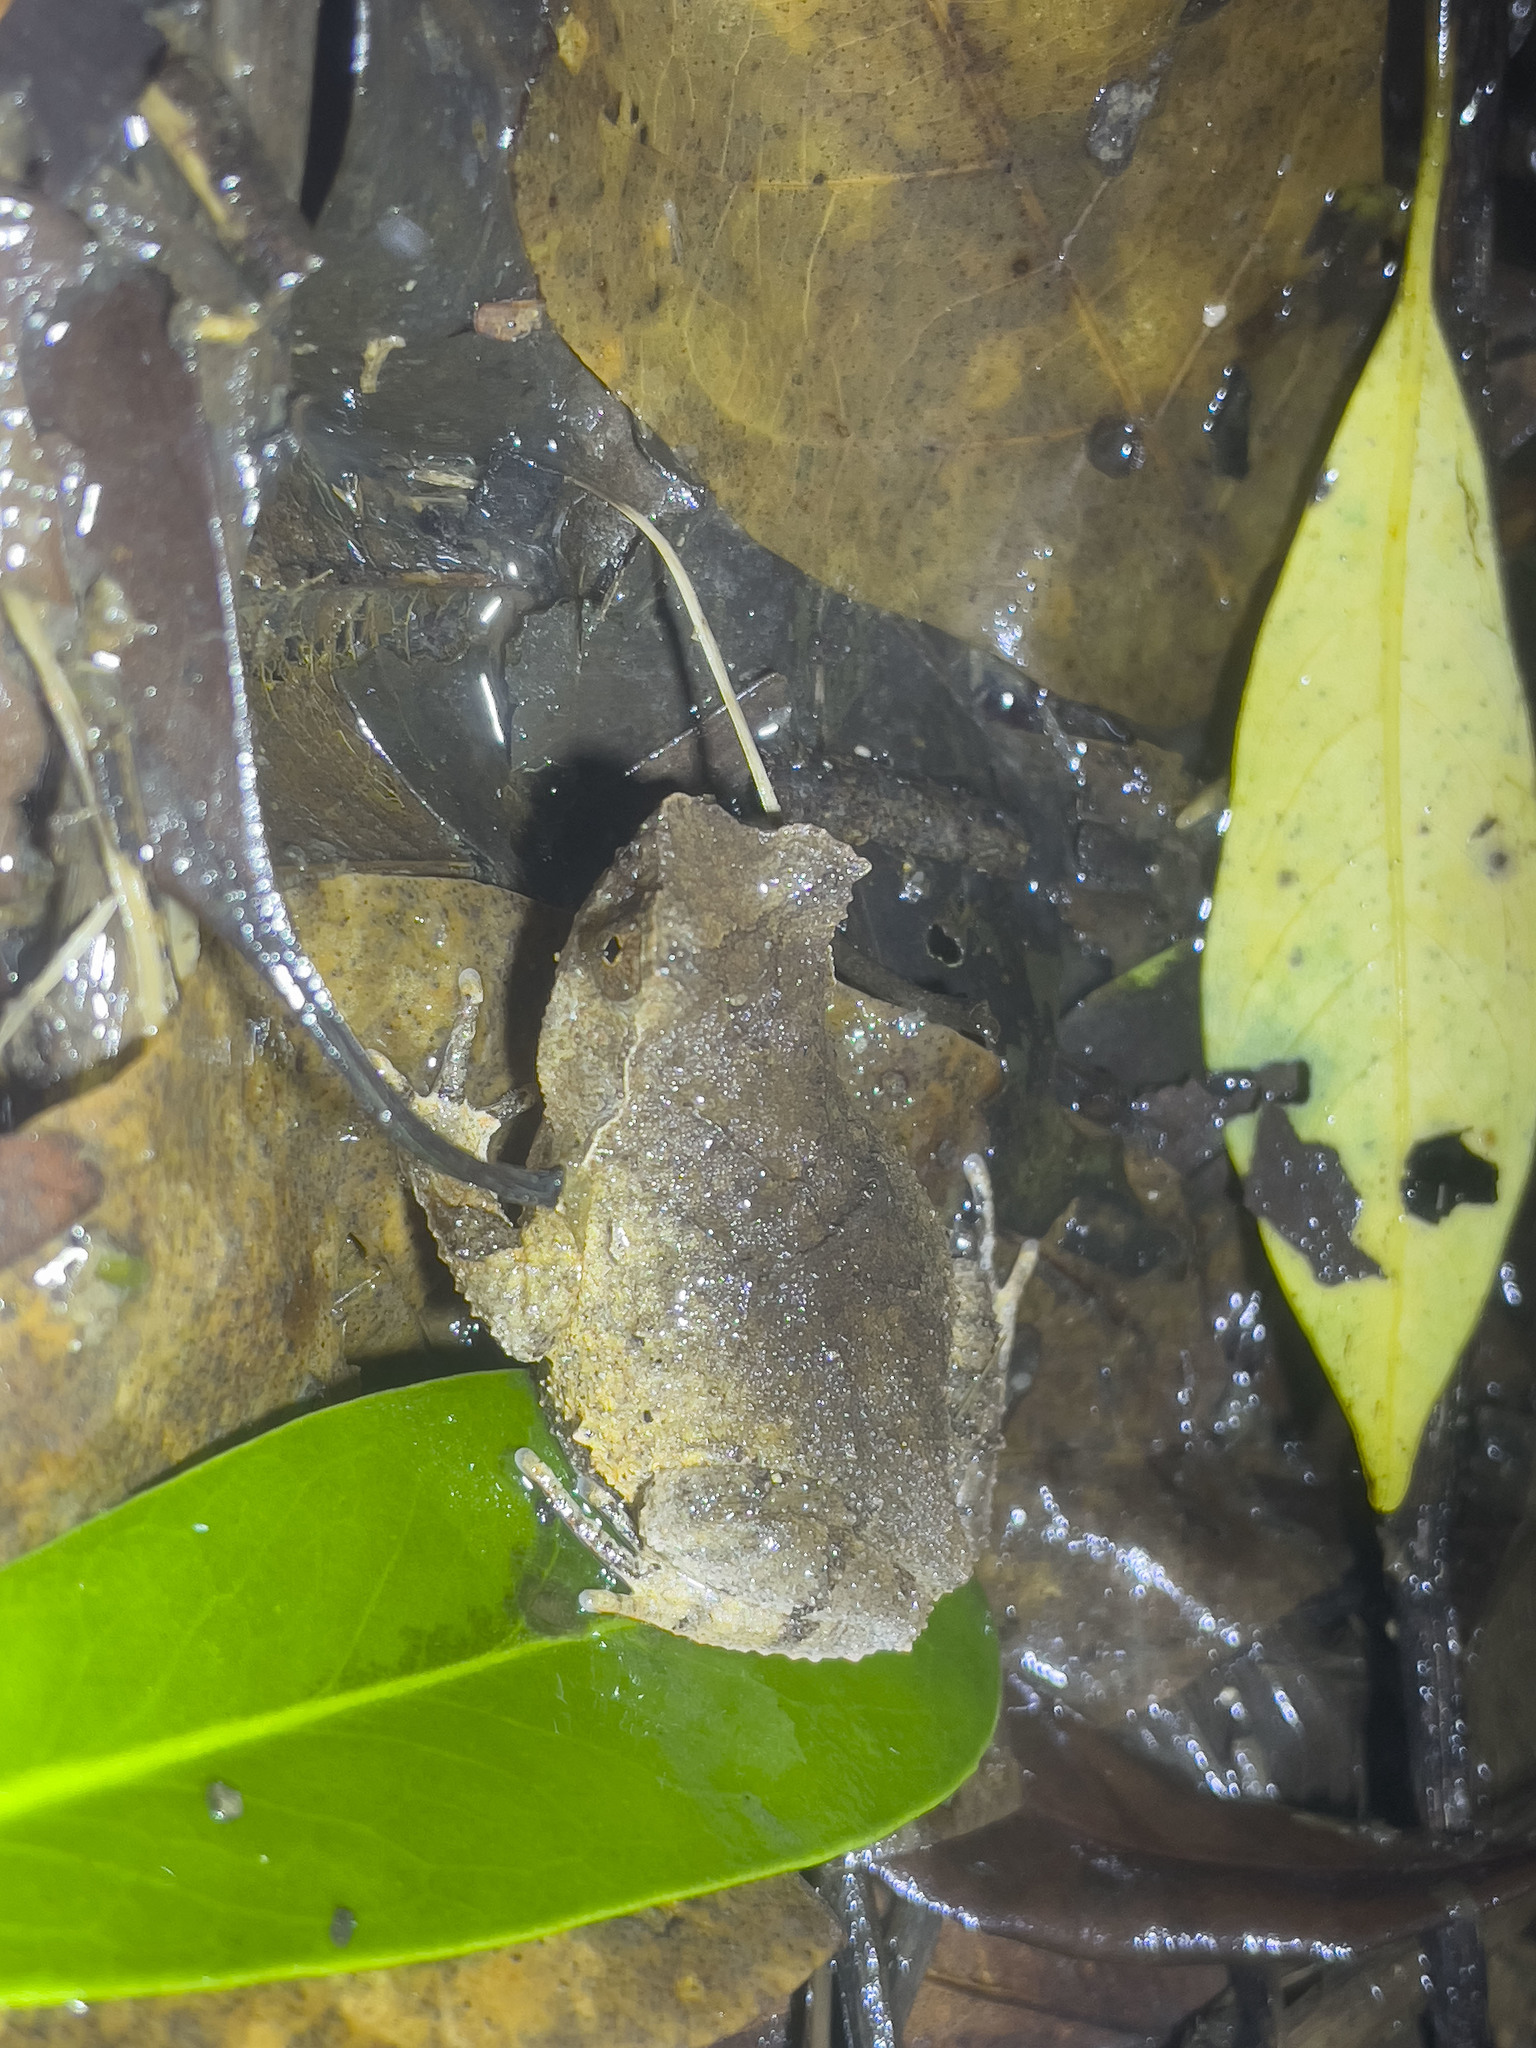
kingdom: Animalia
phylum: Chordata
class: Amphibia
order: Anura
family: Megophryidae
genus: Megophrys
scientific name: Megophrys brachykolos
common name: Short-legged horned toad
